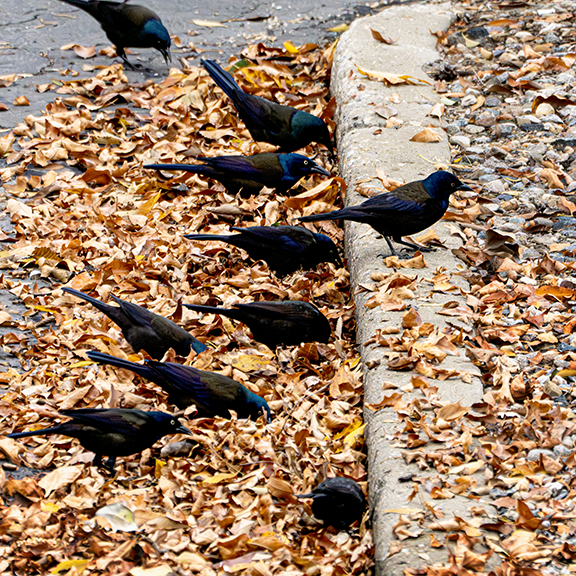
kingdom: Animalia
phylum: Chordata
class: Aves
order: Passeriformes
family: Icteridae
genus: Quiscalus
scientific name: Quiscalus quiscula
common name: Common grackle
